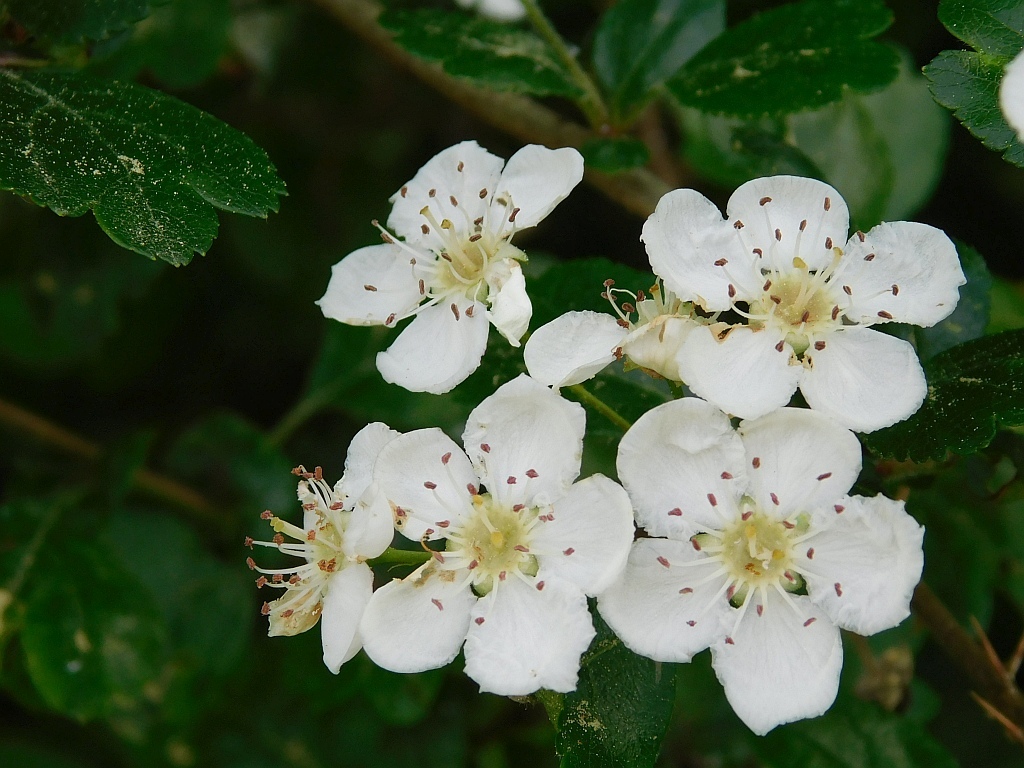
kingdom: Plantae
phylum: Tracheophyta
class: Magnoliopsida
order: Rosales
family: Rosaceae
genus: Crataegus
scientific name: Crataegus laevigata
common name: Midland hawthorn
